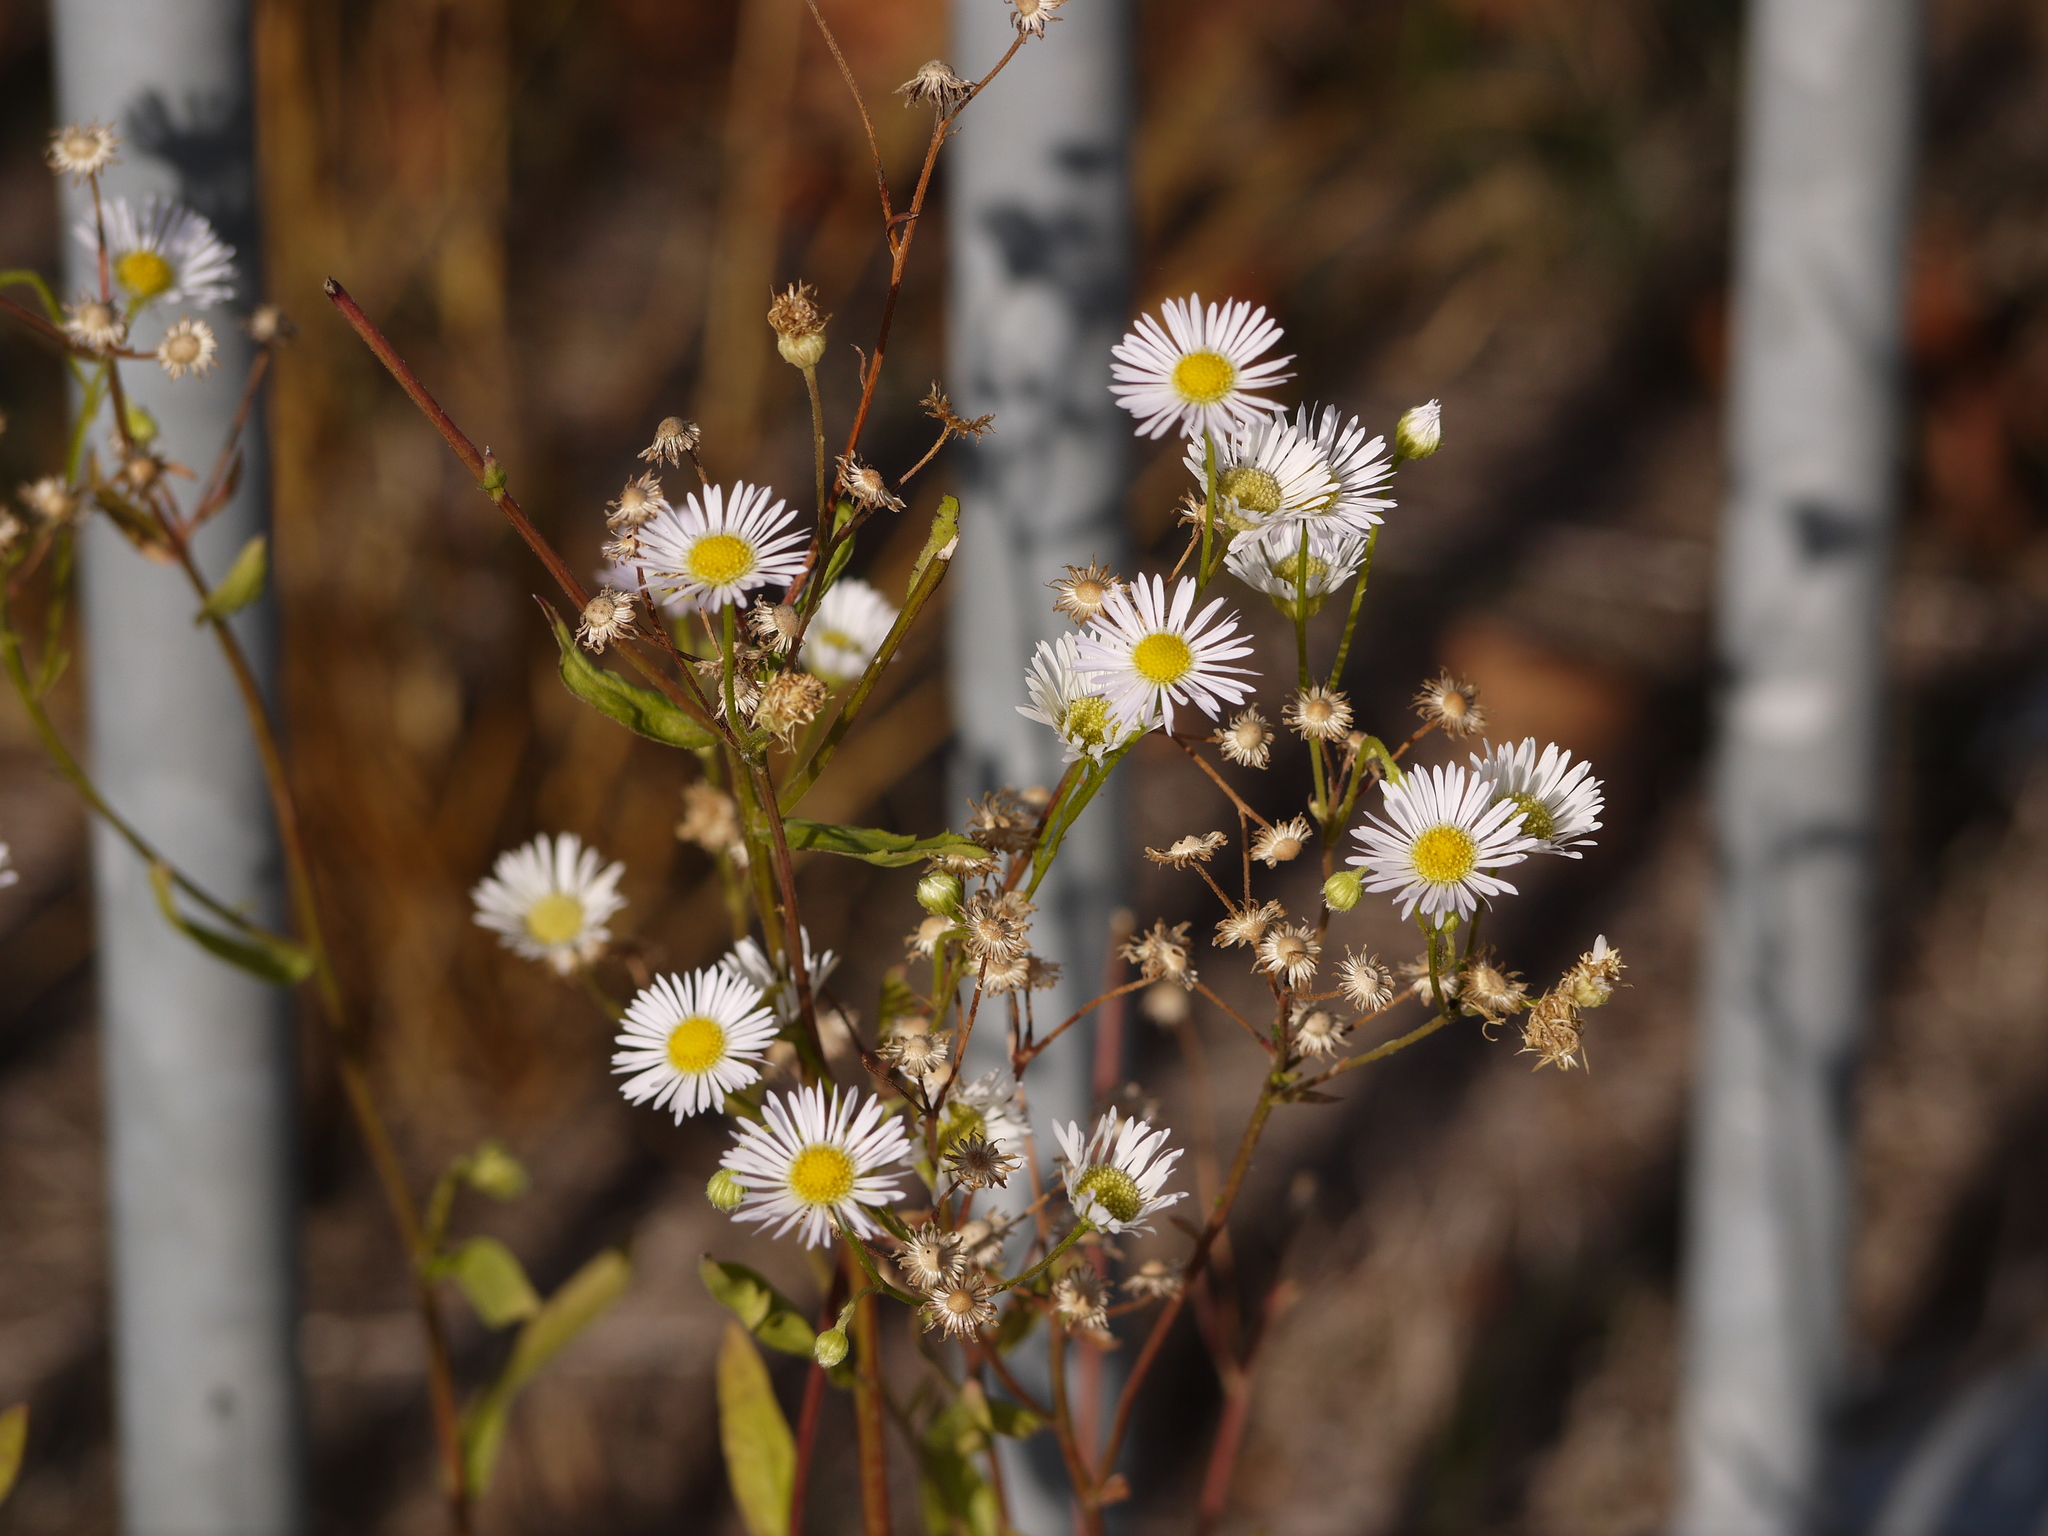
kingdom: Plantae
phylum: Tracheophyta
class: Magnoliopsida
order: Asterales
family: Asteraceae
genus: Erigeron
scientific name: Erigeron annuus
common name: Tall fleabane
